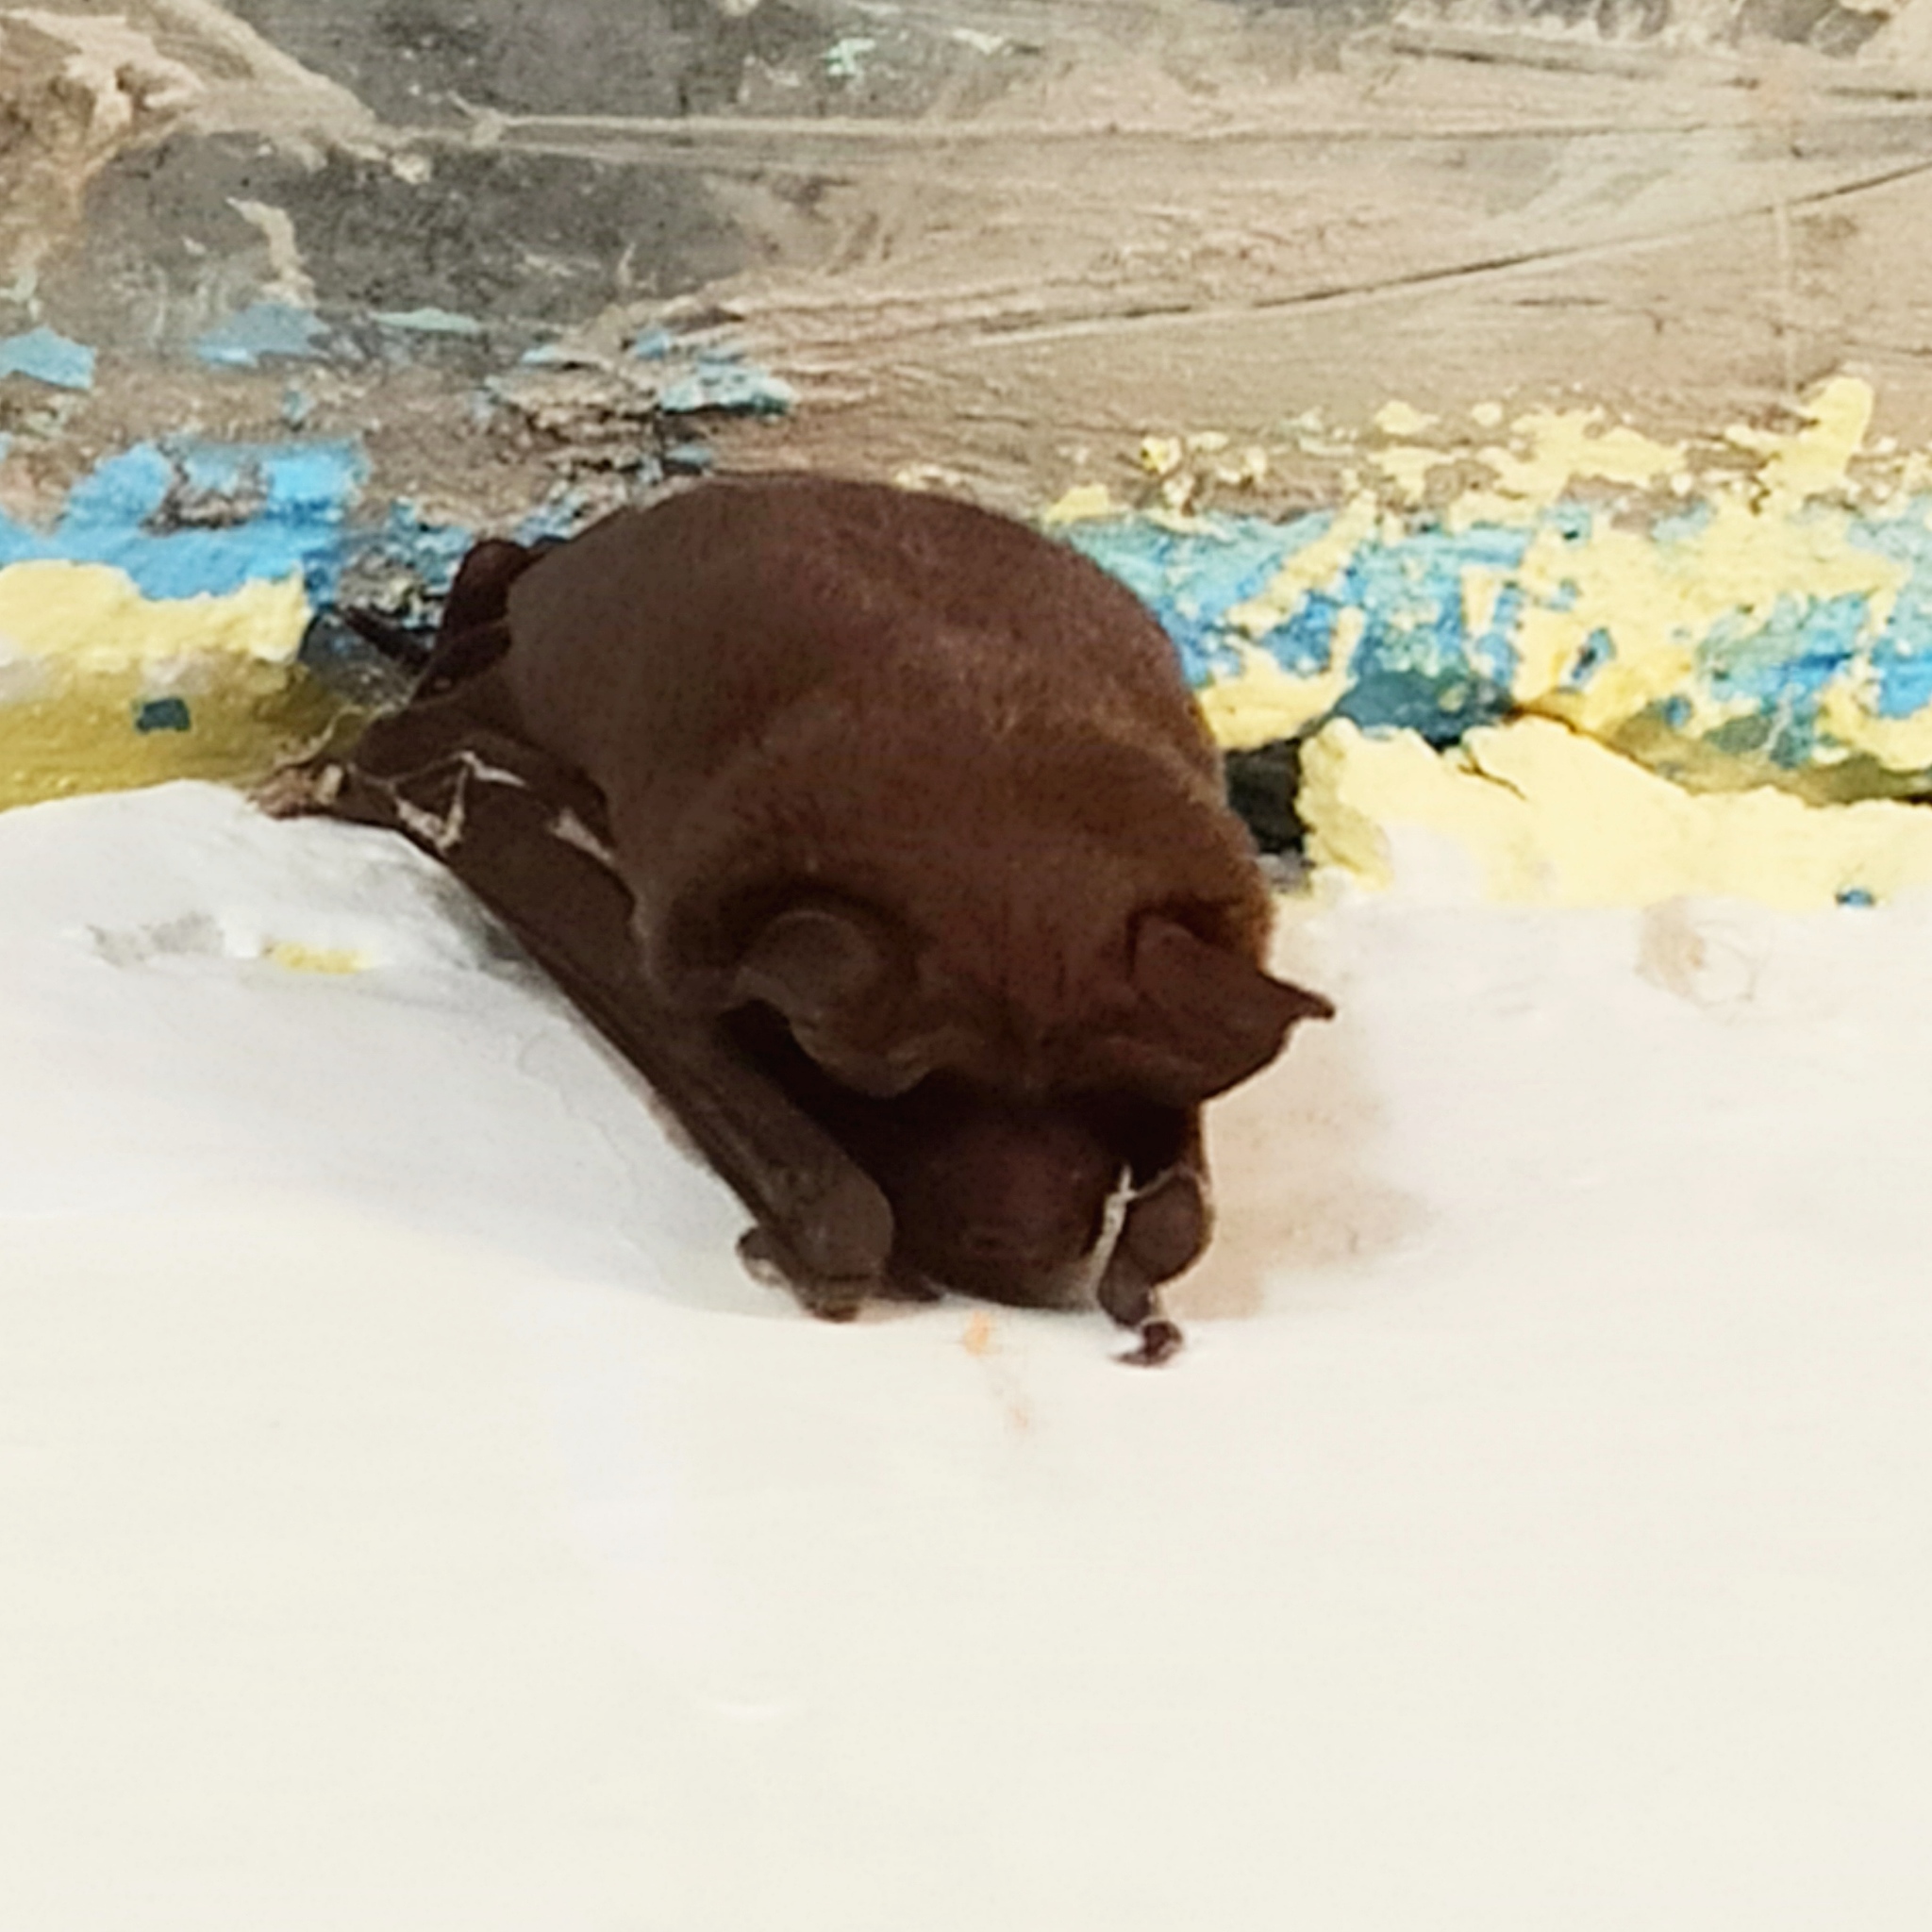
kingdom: Animalia
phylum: Chordata
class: Mammalia
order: Chiroptera
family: Molossidae
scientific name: Molossidae
